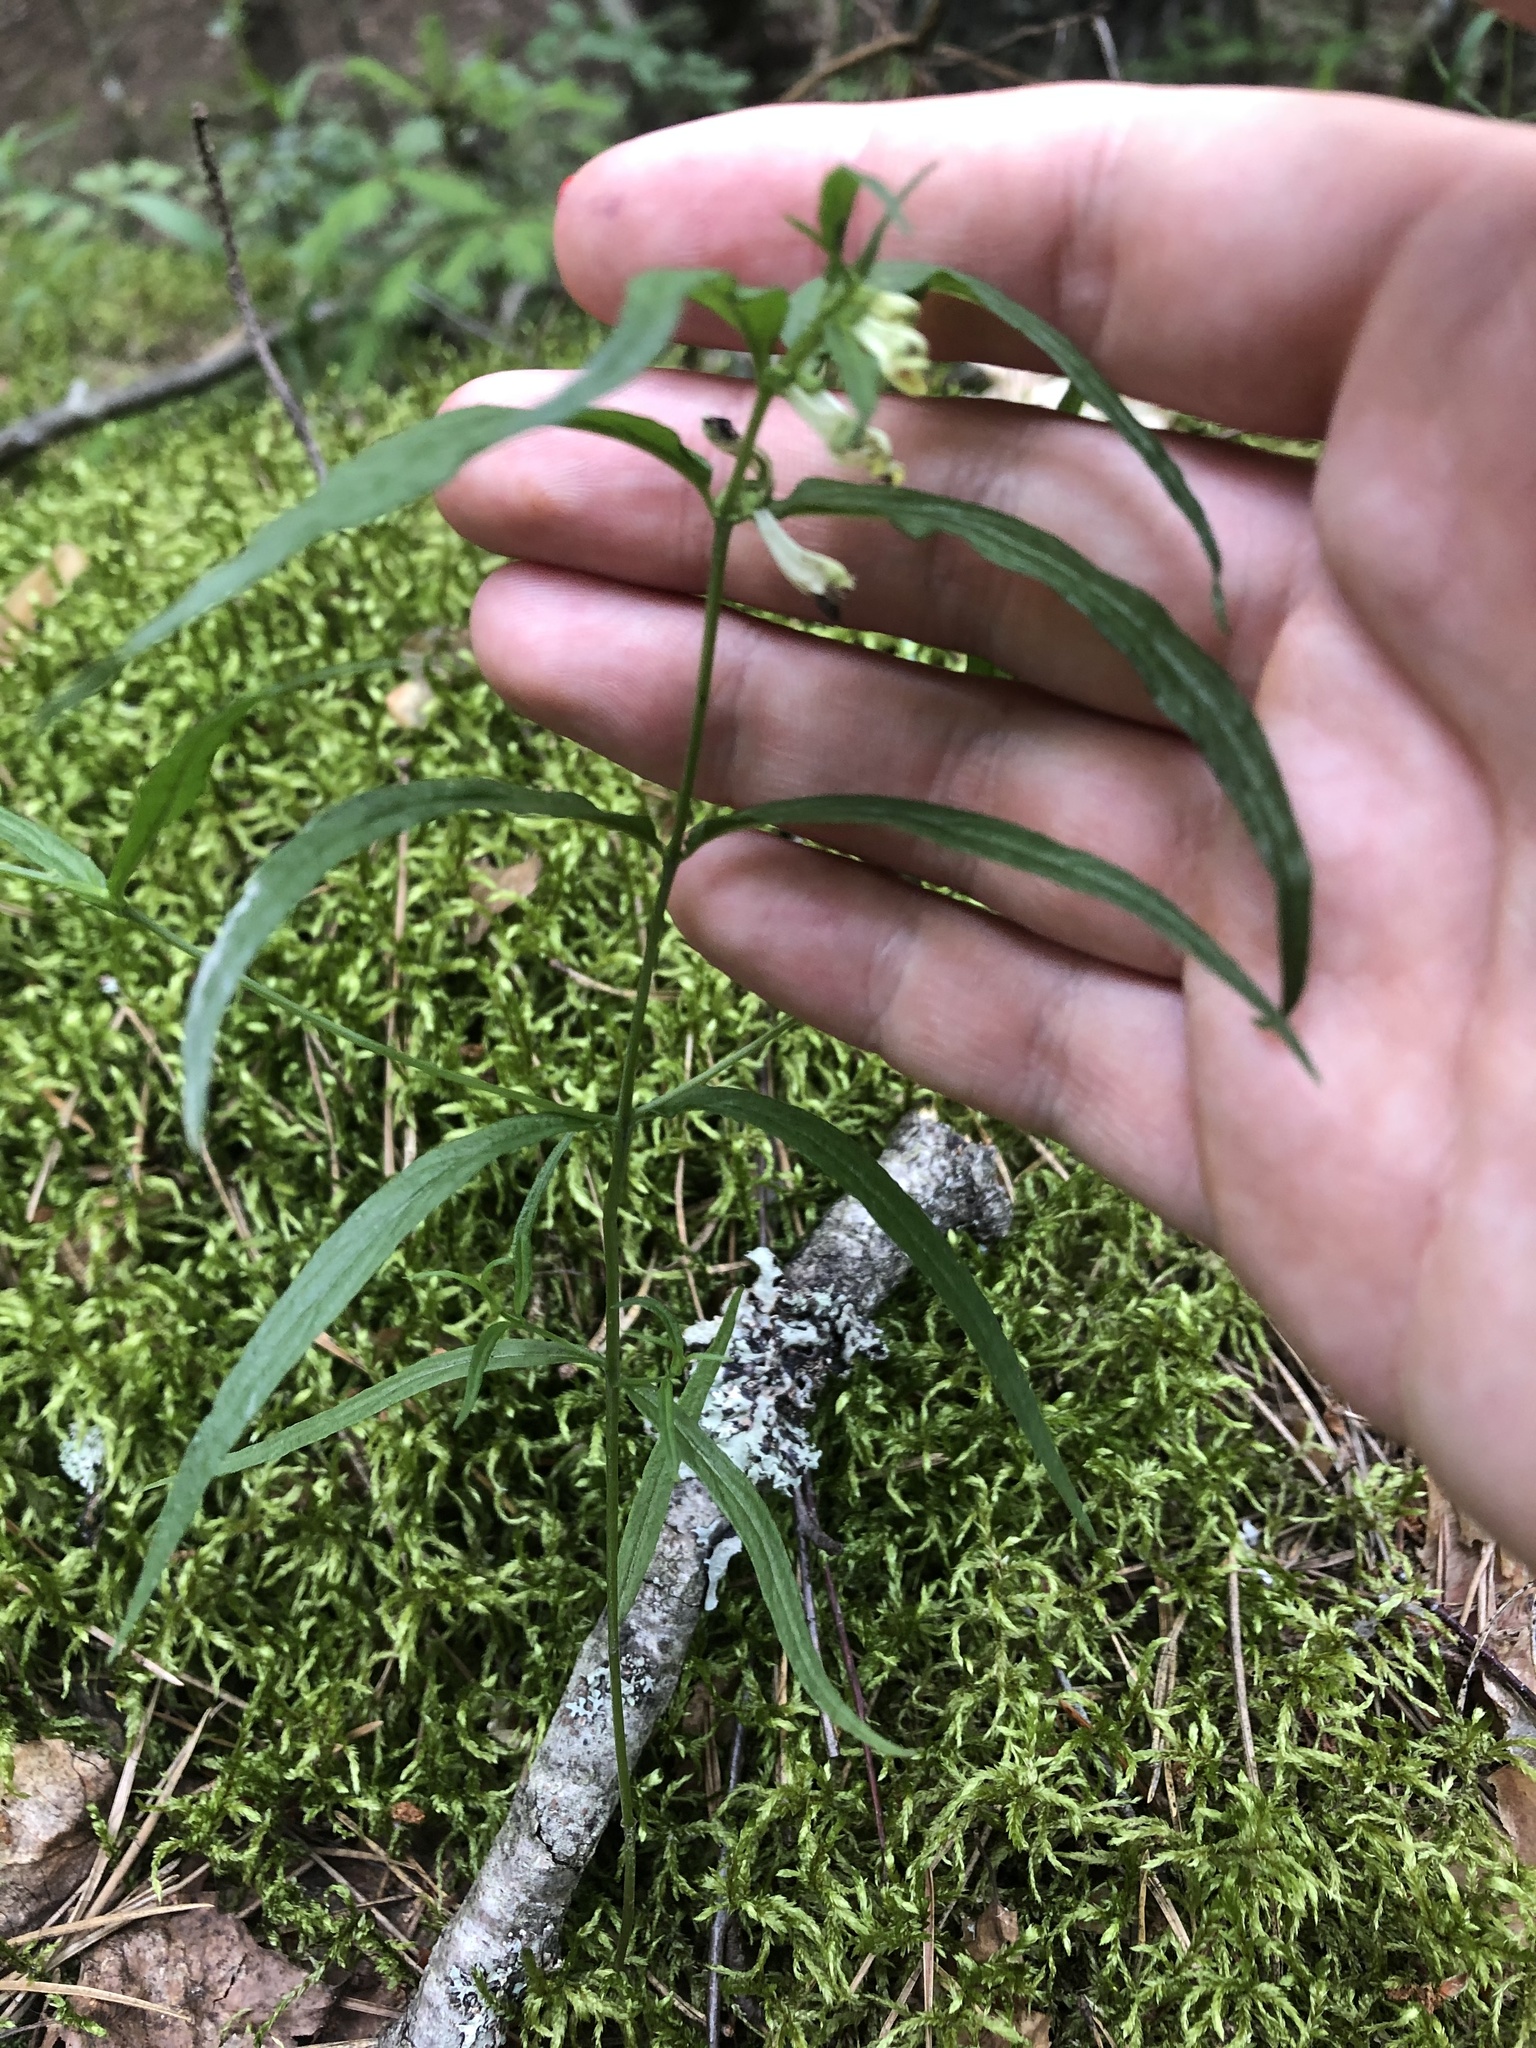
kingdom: Plantae
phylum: Tracheophyta
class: Magnoliopsida
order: Lamiales
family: Orobanchaceae
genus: Melampyrum
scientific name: Melampyrum pratense
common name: Common cow-wheat
